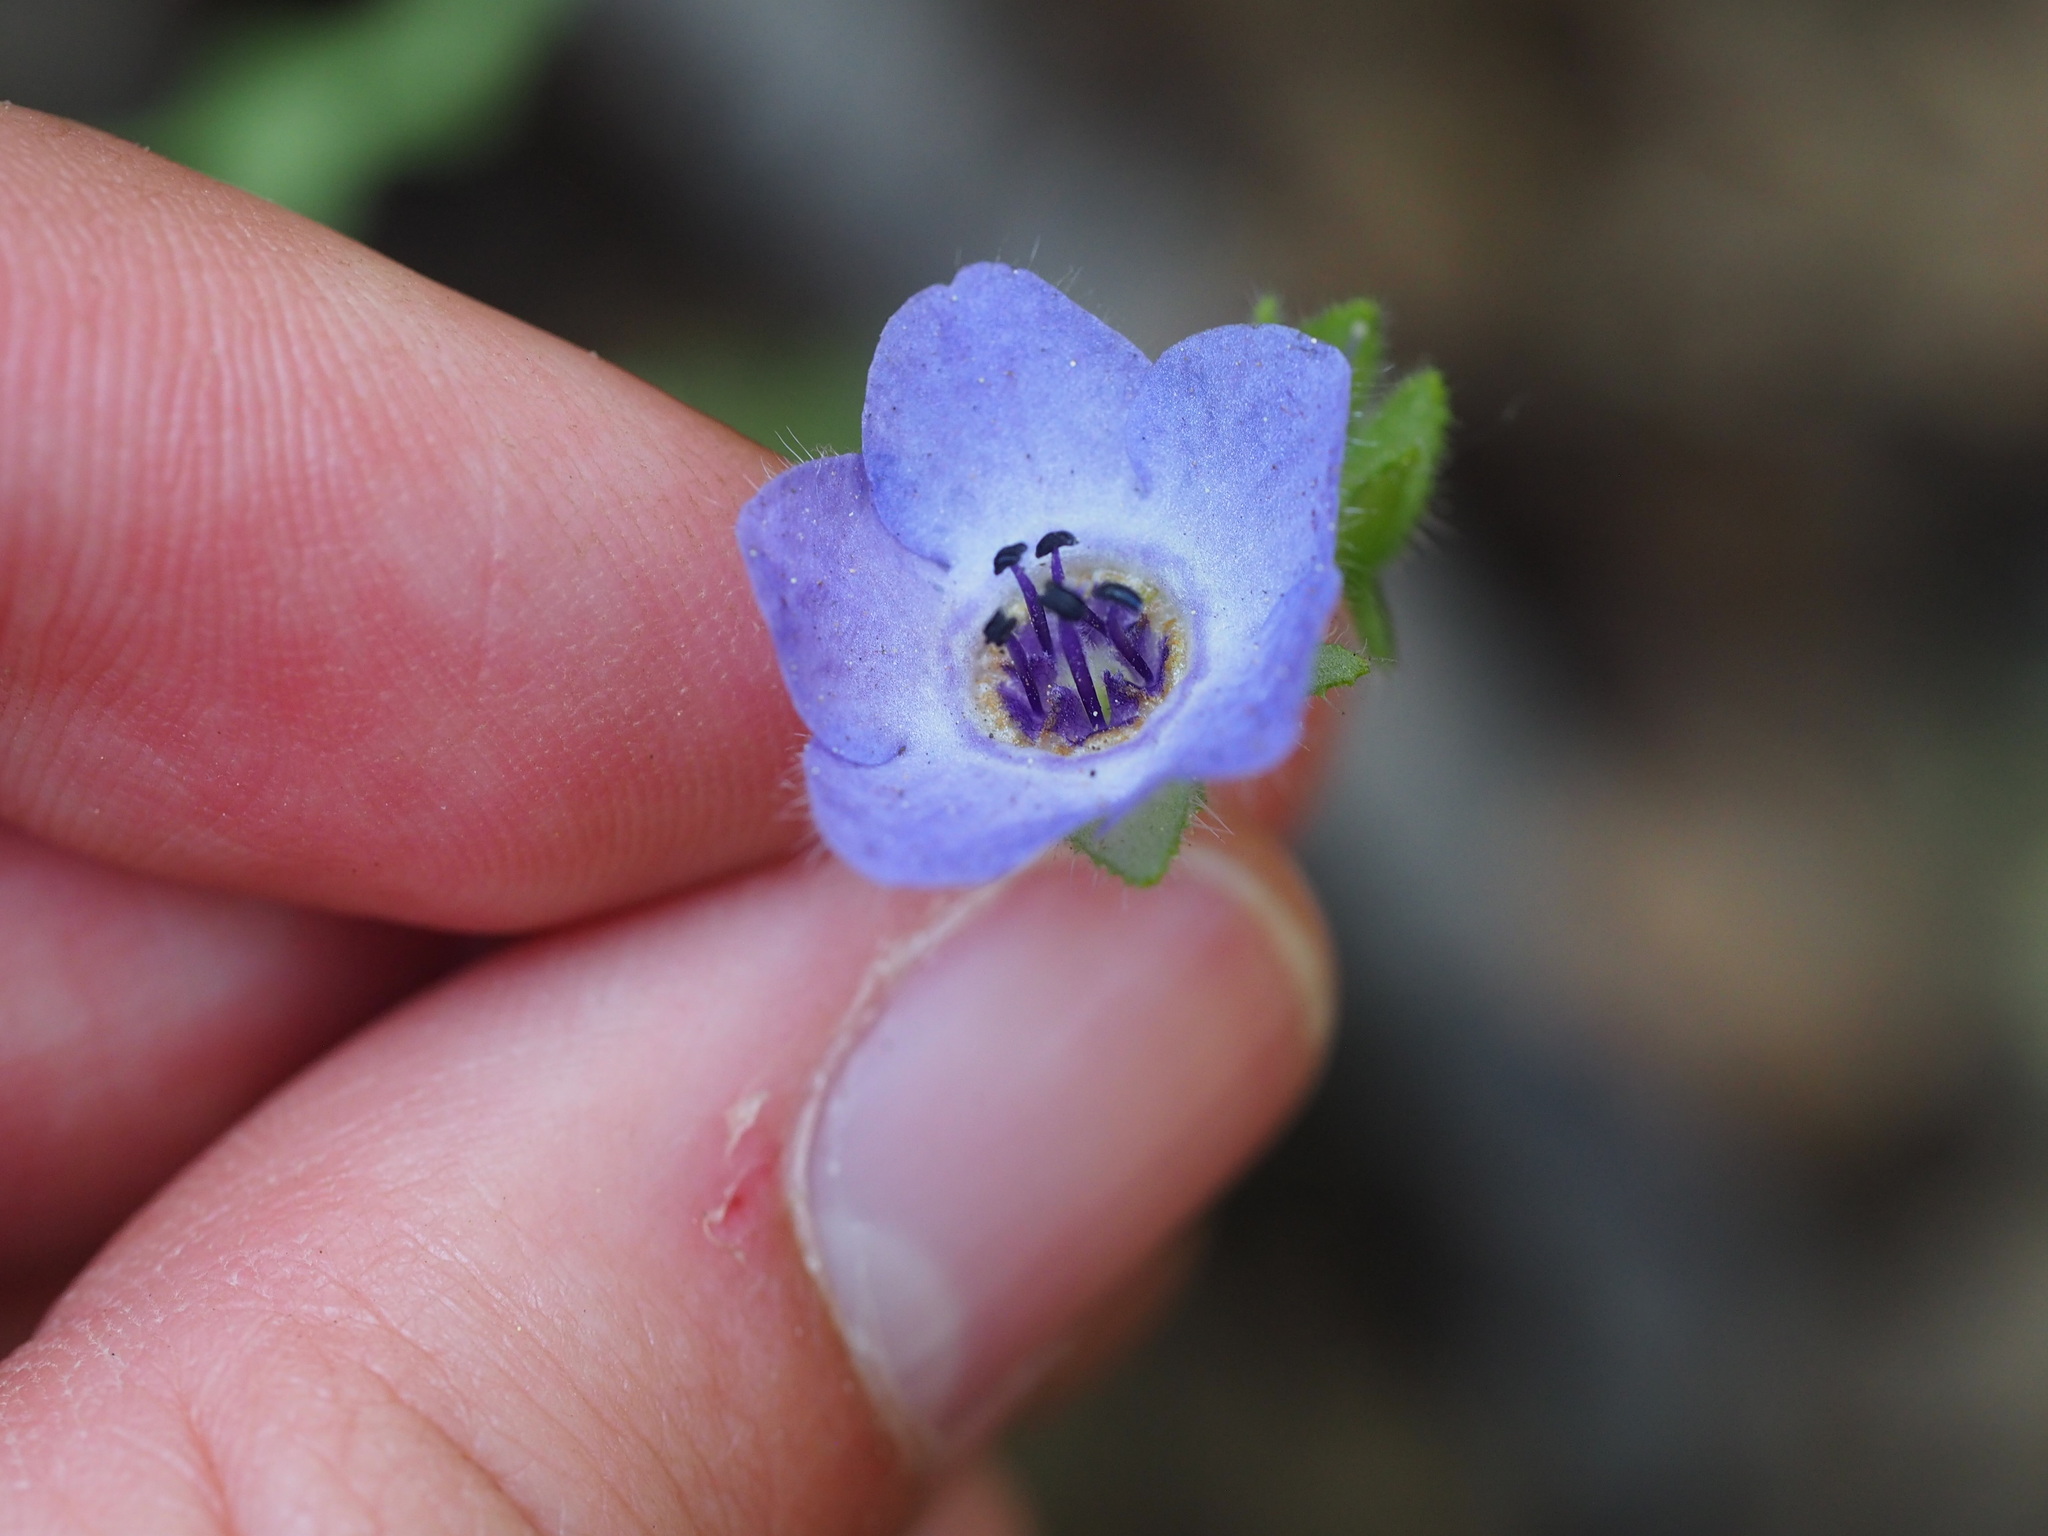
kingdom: Plantae
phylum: Tracheophyta
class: Magnoliopsida
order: Boraginales
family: Hydrophyllaceae
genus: Pholistoma
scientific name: Pholistoma auritum
